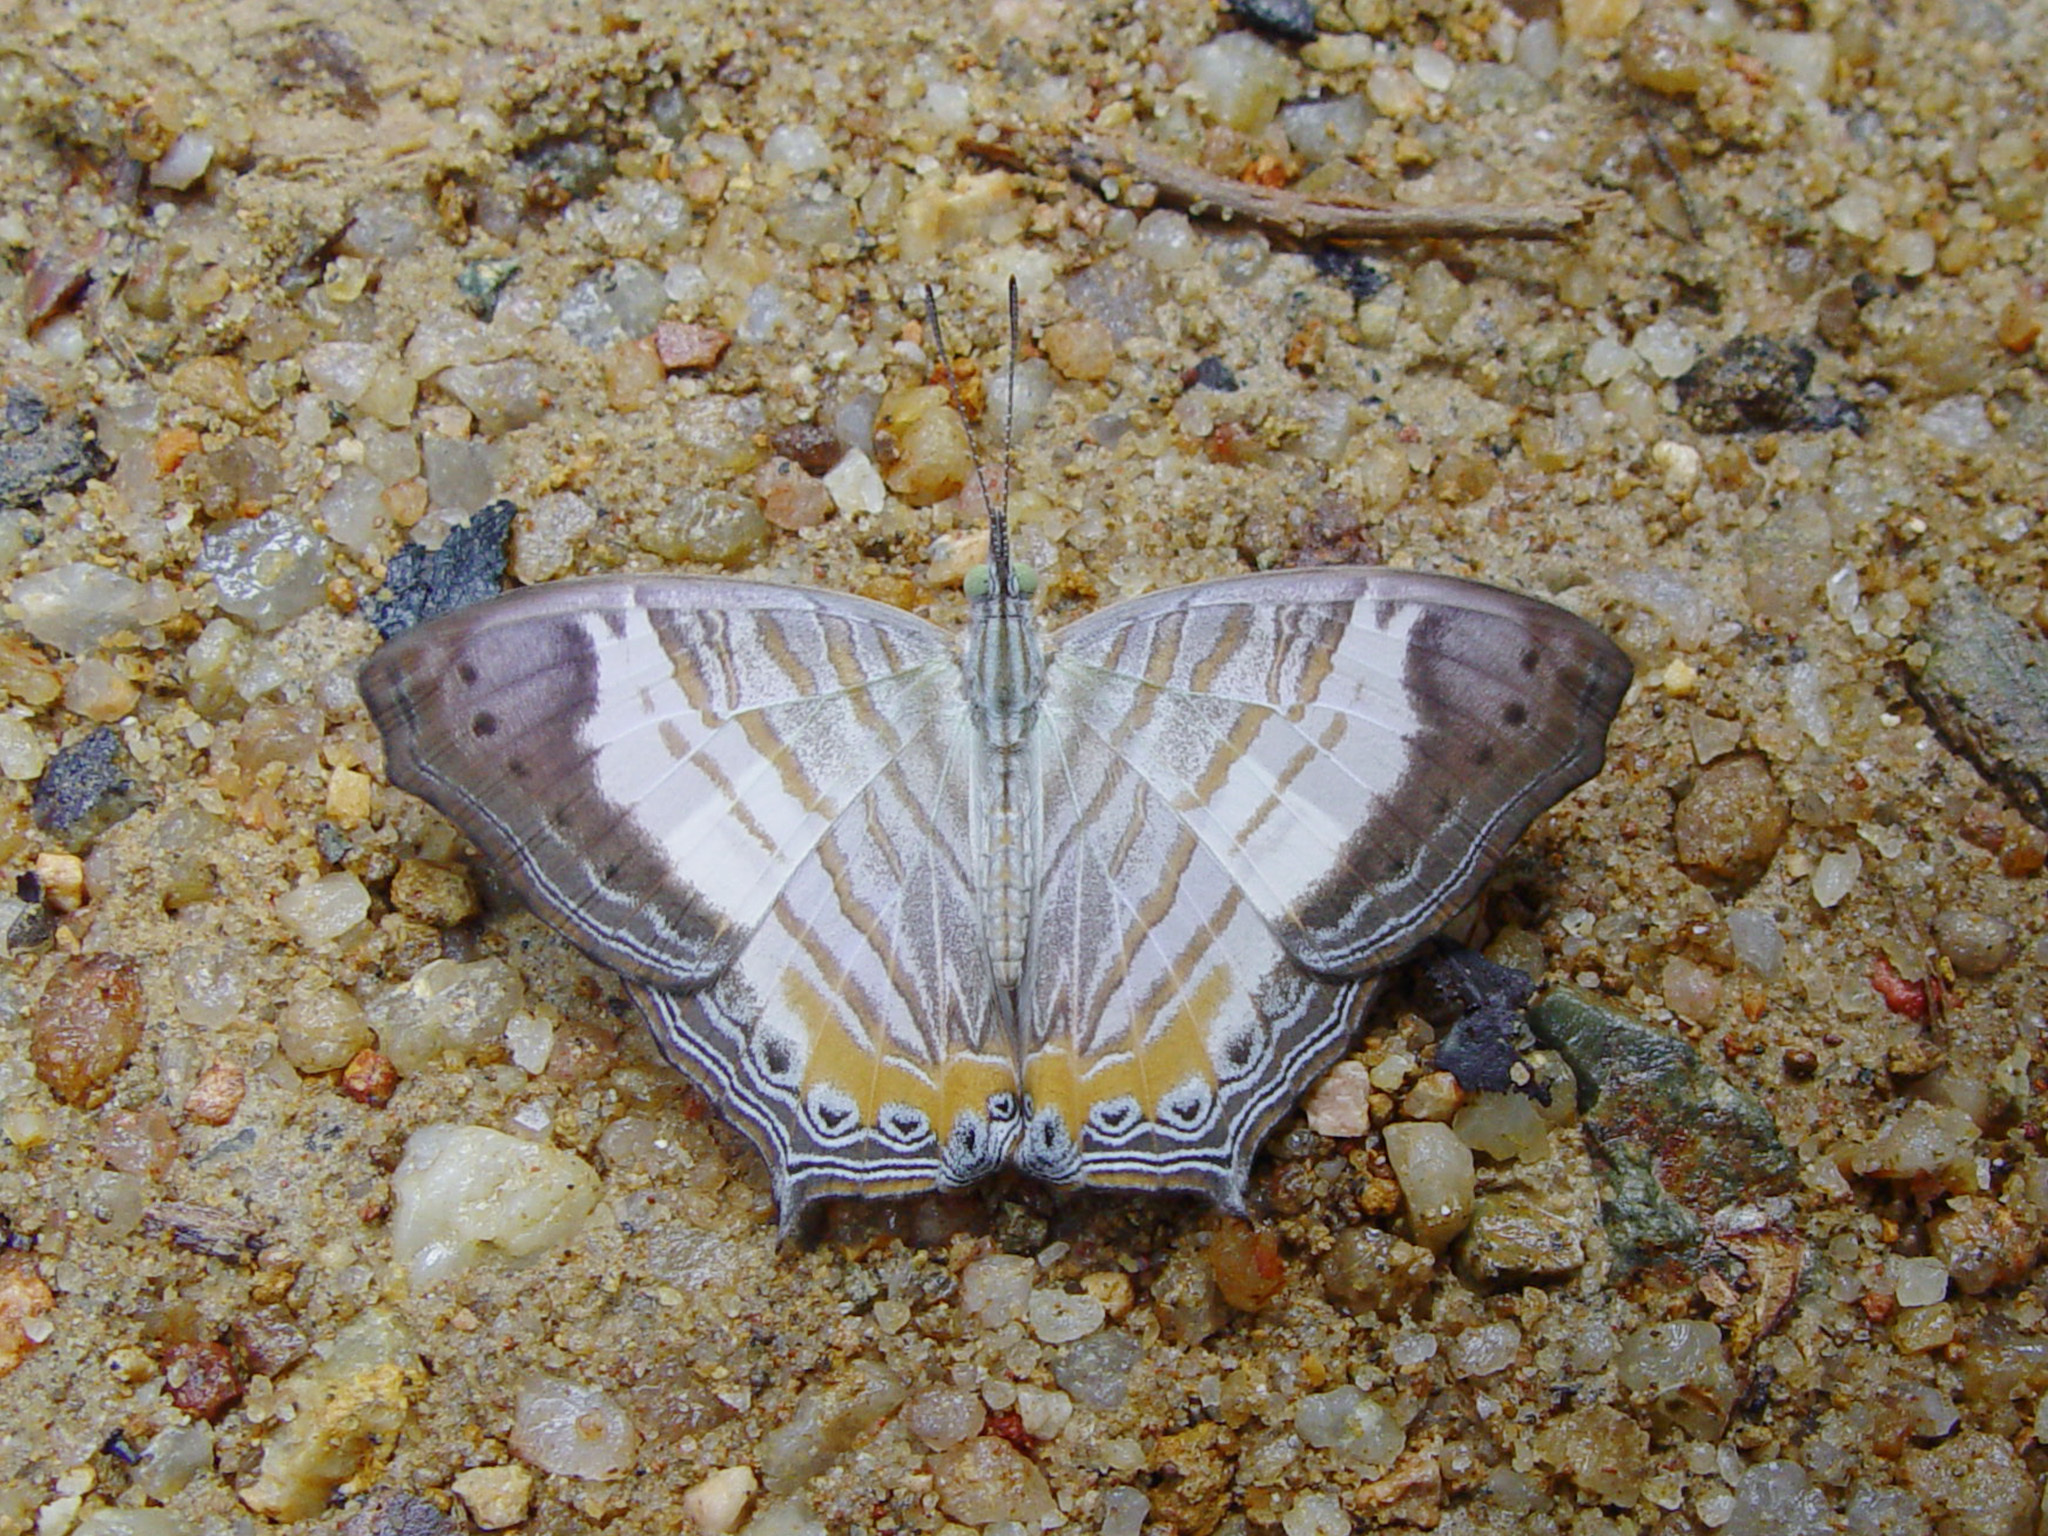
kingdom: Animalia
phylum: Arthropoda
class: Insecta
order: Lepidoptera
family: Nymphalidae
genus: Cyrestis
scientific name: Cyrestis themire
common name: Little mapwing
